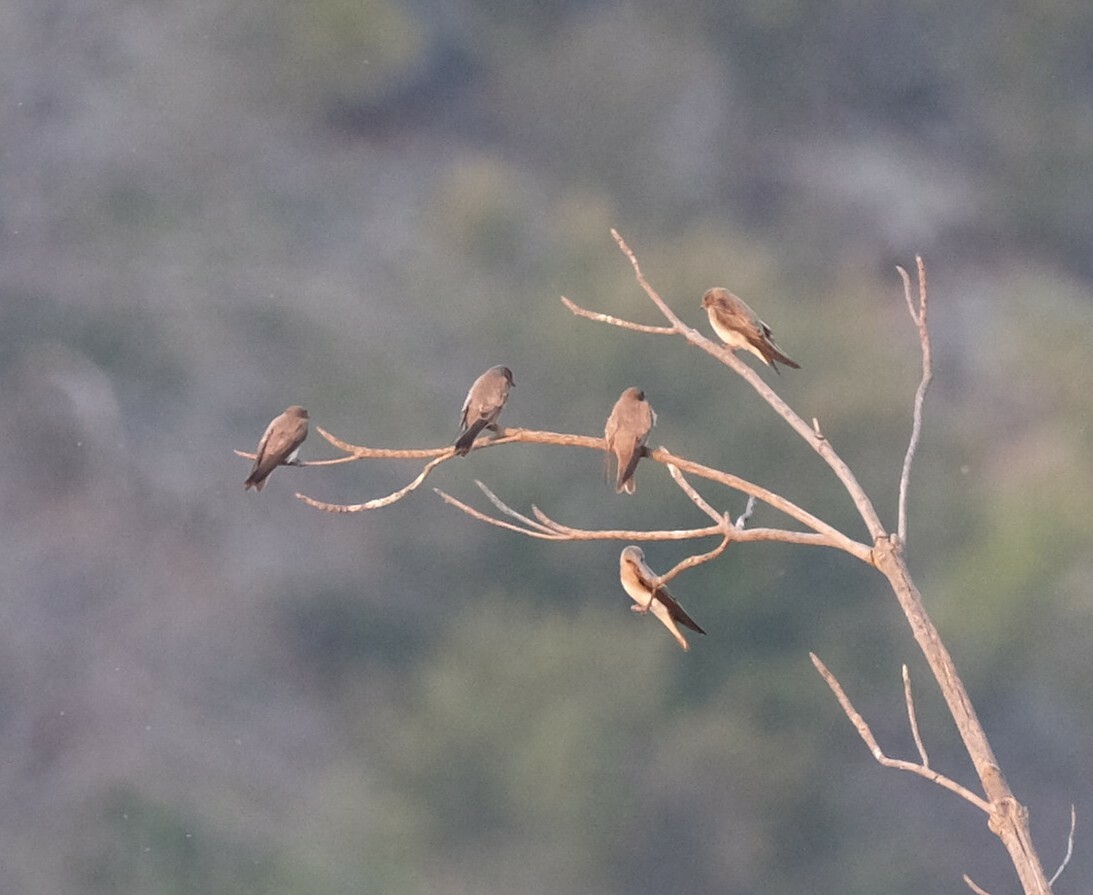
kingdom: Animalia
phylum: Chordata
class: Aves
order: Passeriformes
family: Hirundinidae
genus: Riparia
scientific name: Riparia paludicola
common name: Brown-throated martin
